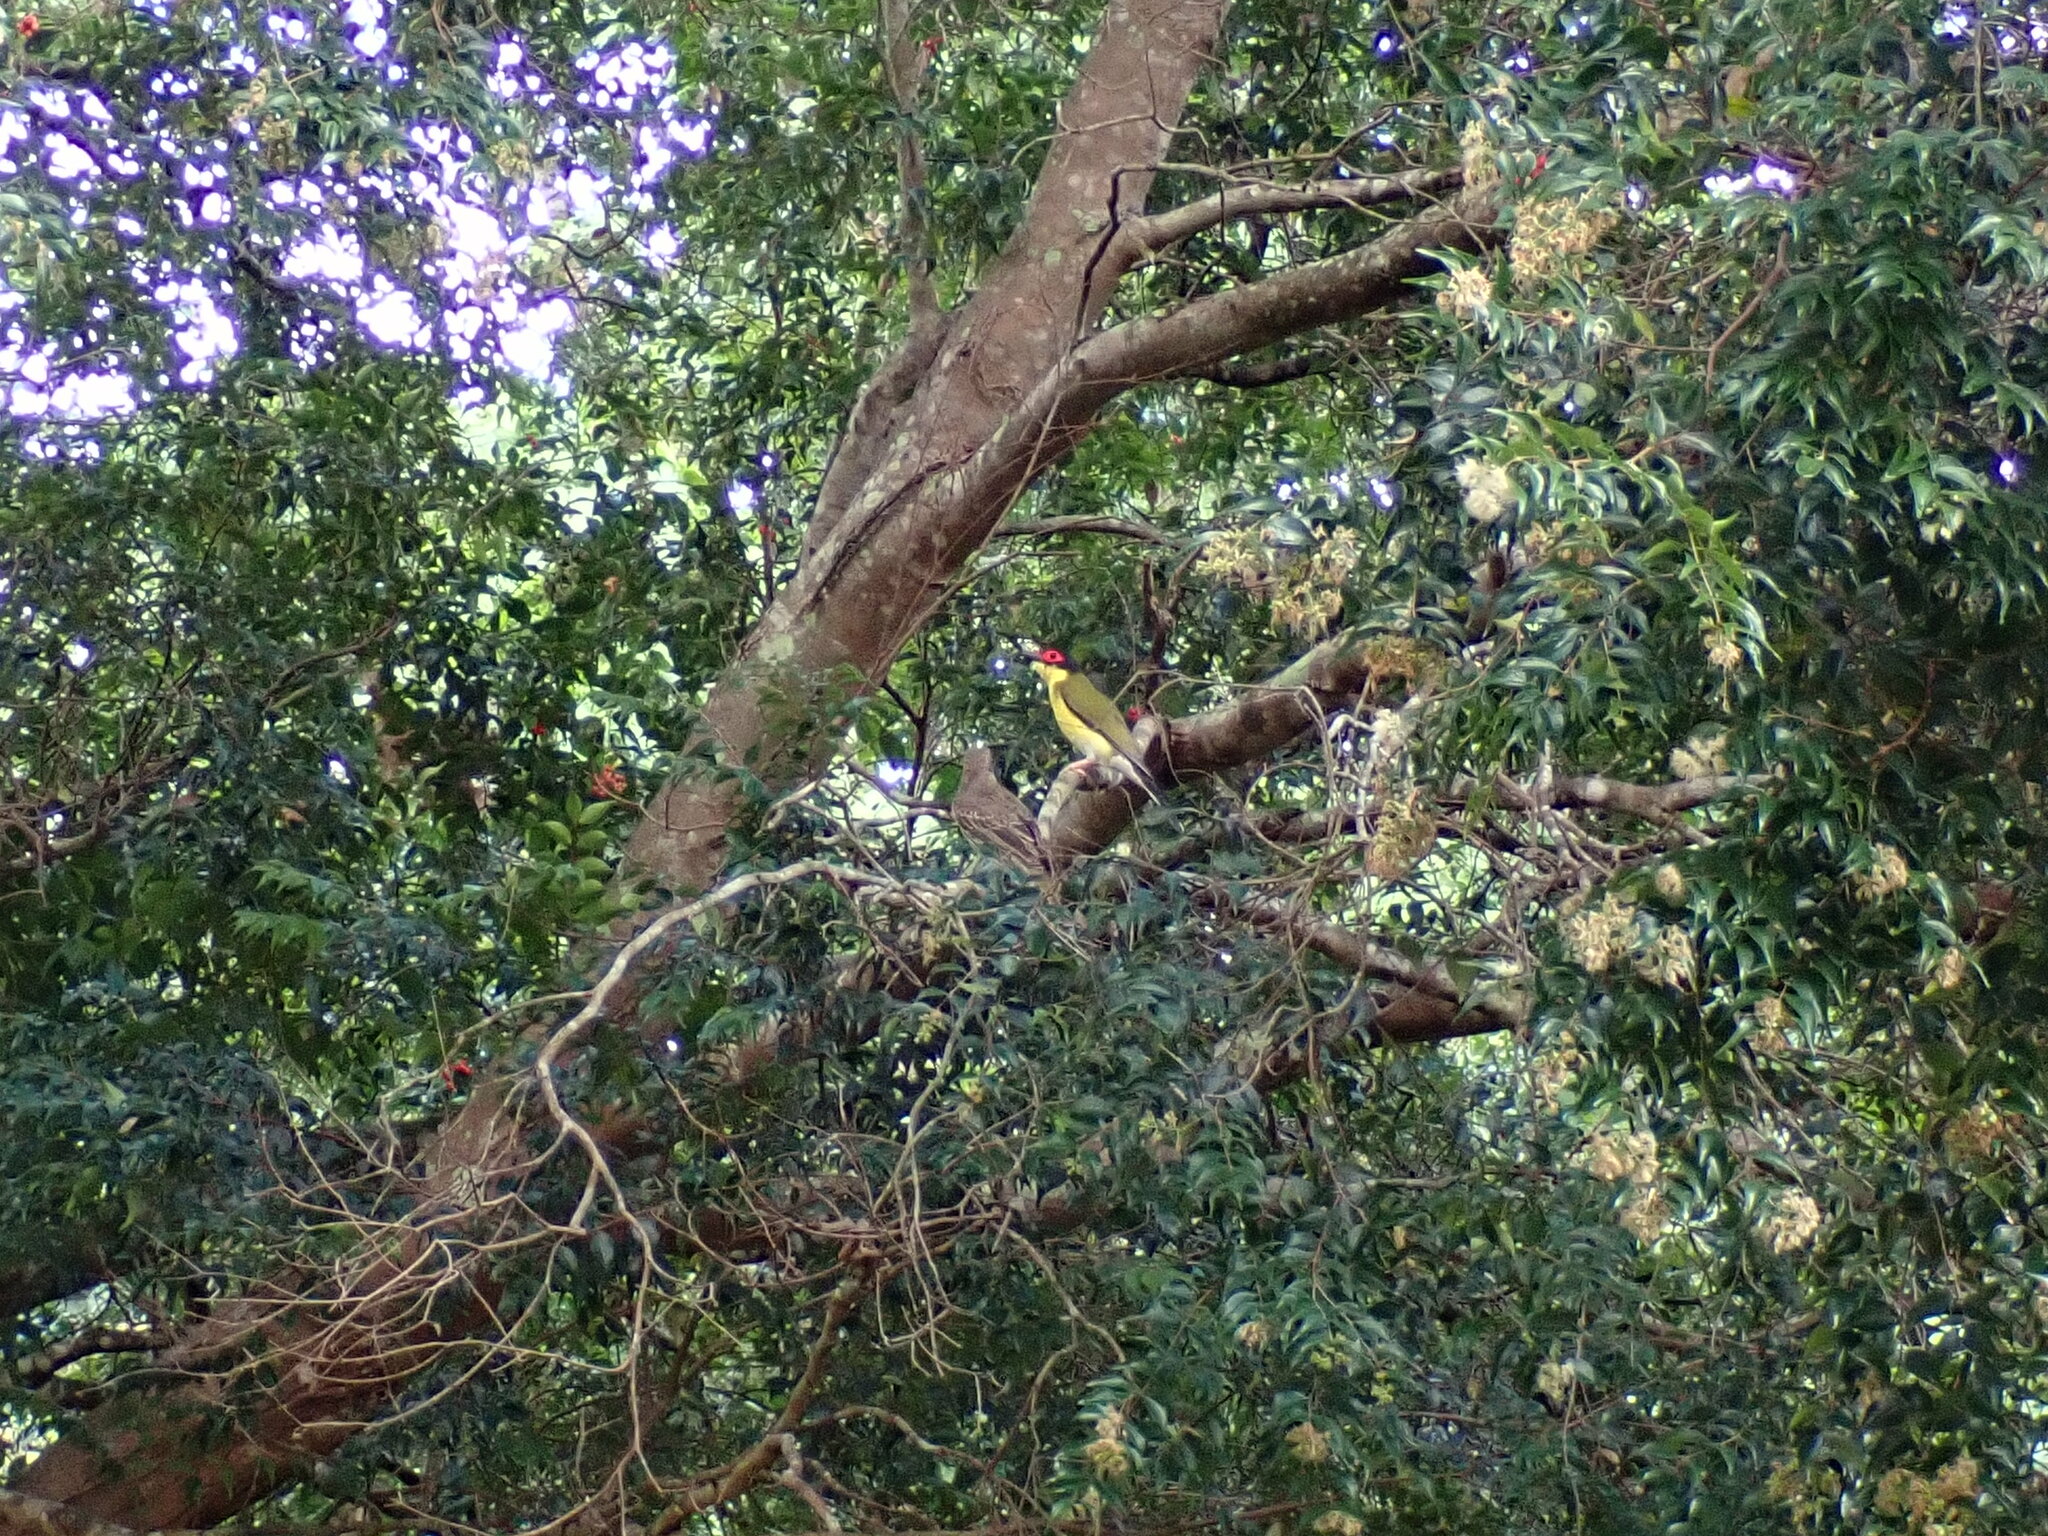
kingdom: Animalia
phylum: Chordata
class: Aves
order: Passeriformes
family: Oriolidae
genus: Sphecotheres
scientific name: Sphecotheres vieilloti
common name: Australasian figbird
